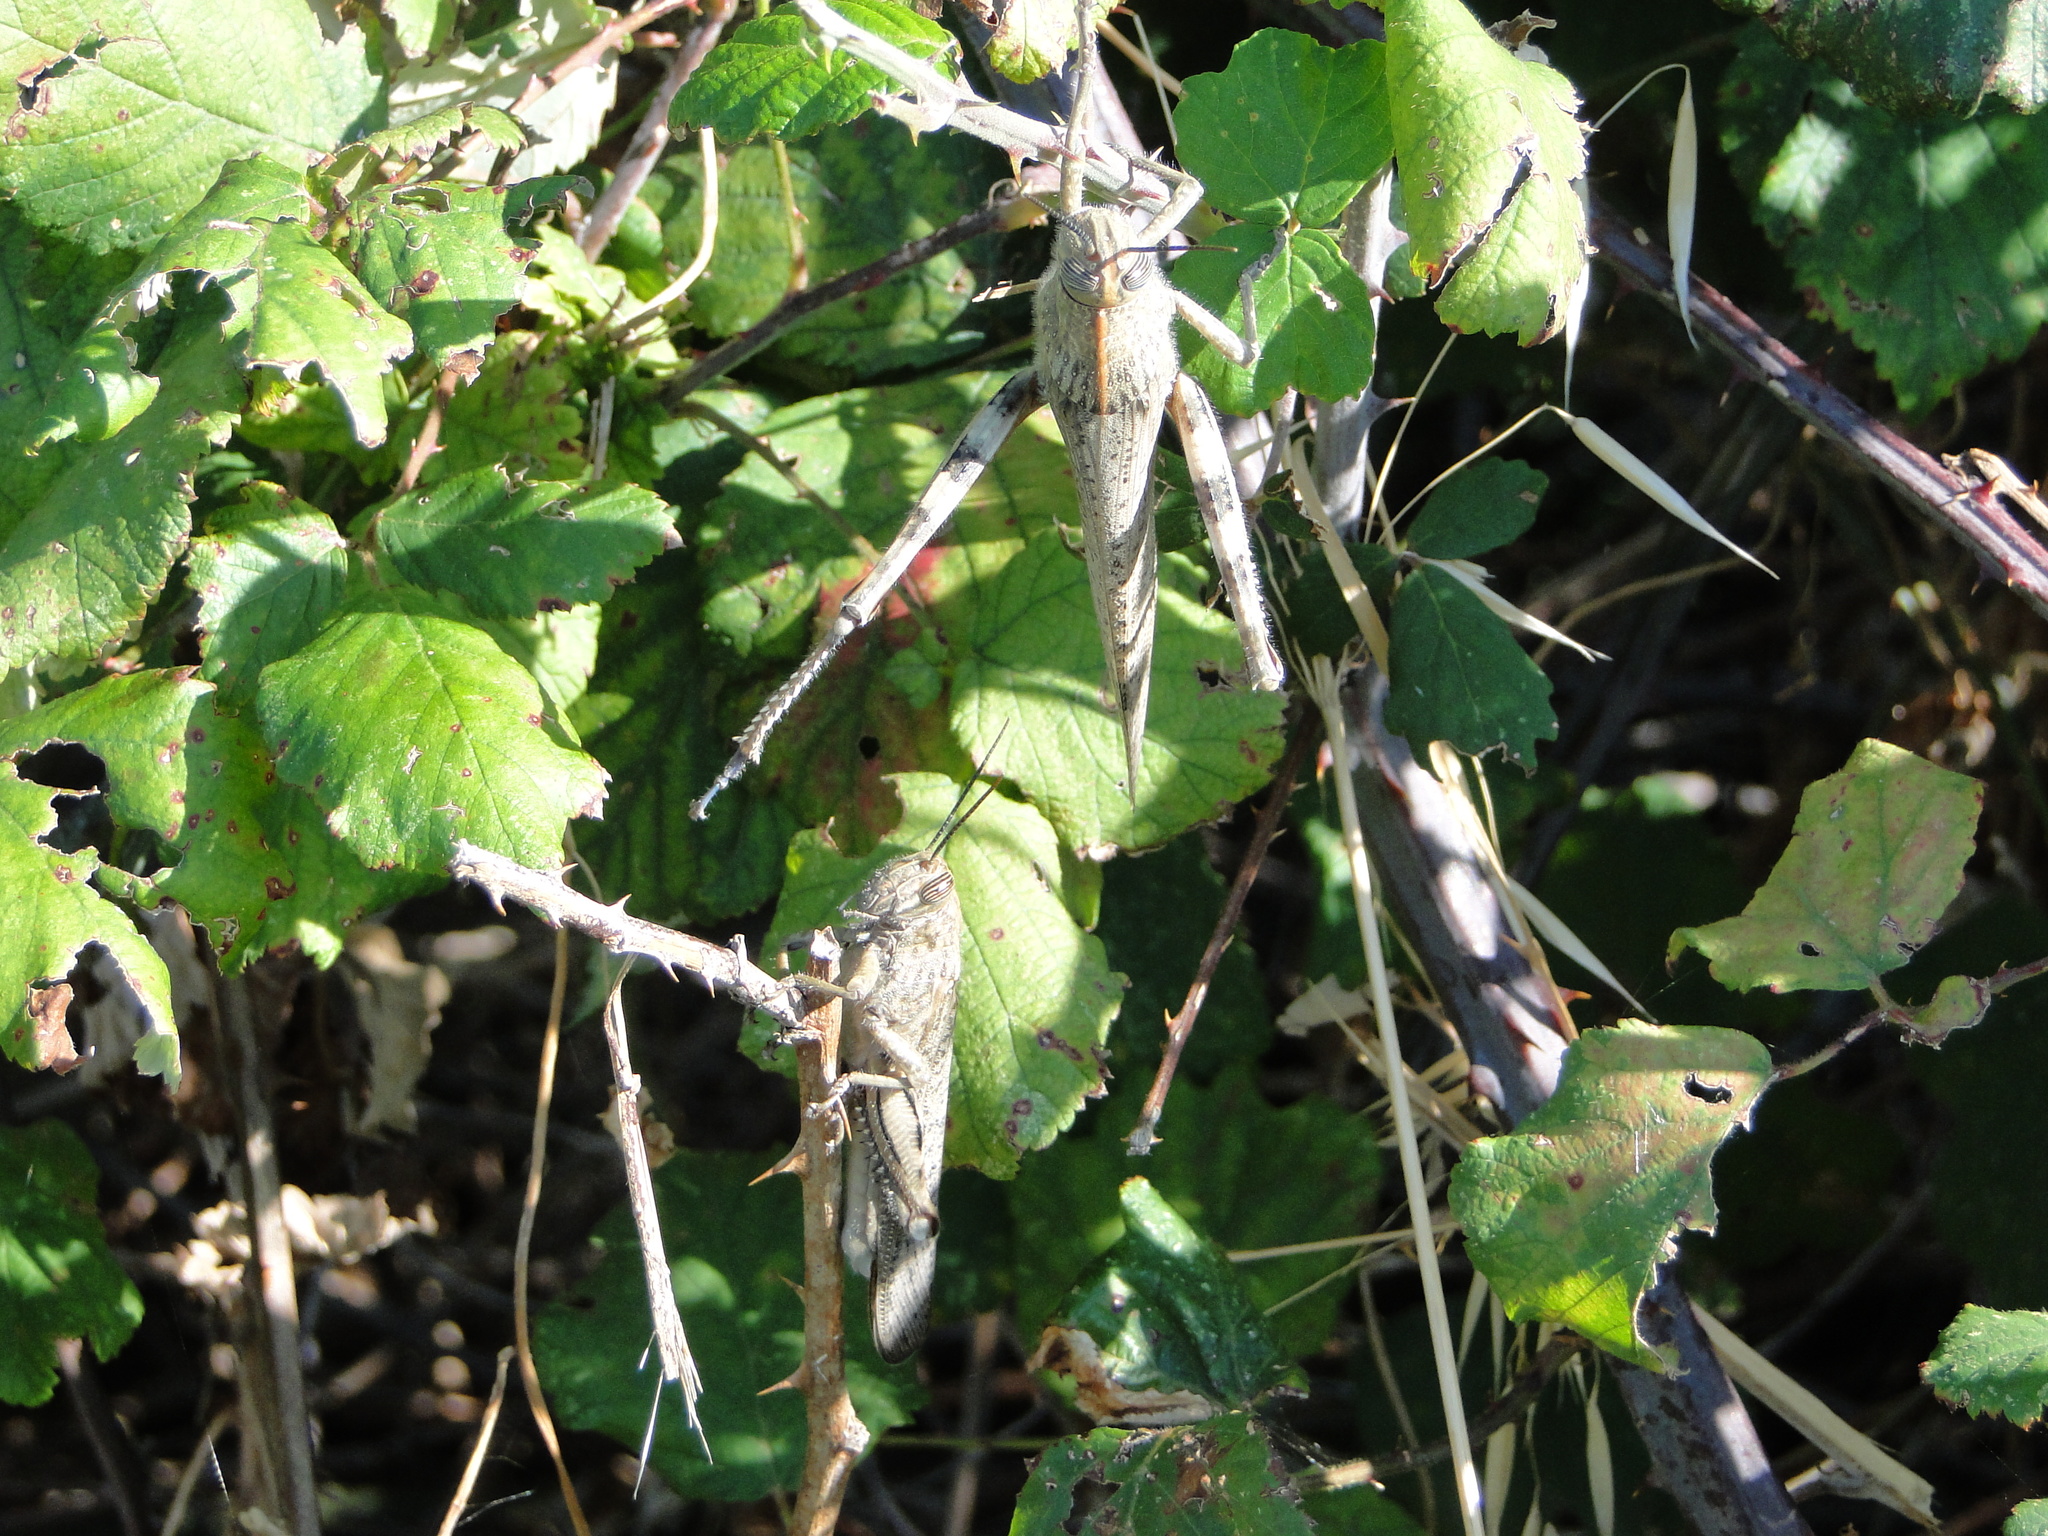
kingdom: Animalia
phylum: Arthropoda
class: Insecta
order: Orthoptera
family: Acrididae
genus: Anacridium
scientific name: Anacridium aegyptium
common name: Egyptian grasshopper
